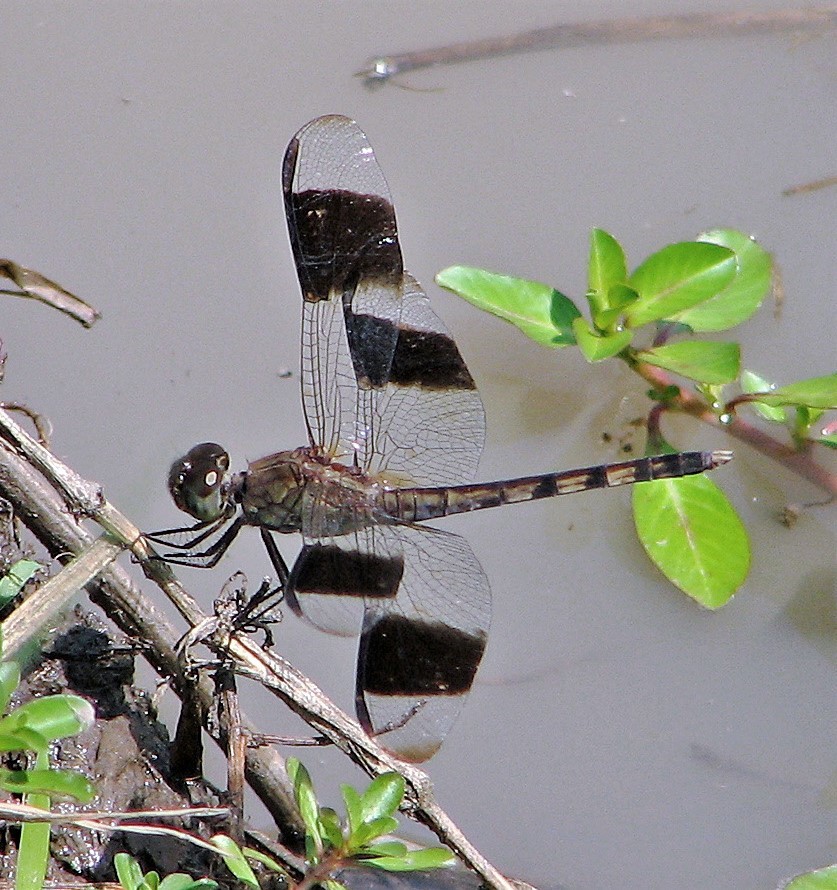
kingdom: Animalia
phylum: Arthropoda
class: Insecta
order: Odonata
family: Libellulidae
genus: Erythrodiplax
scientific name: Erythrodiplax umbrata
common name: Band-winged dragonlet
